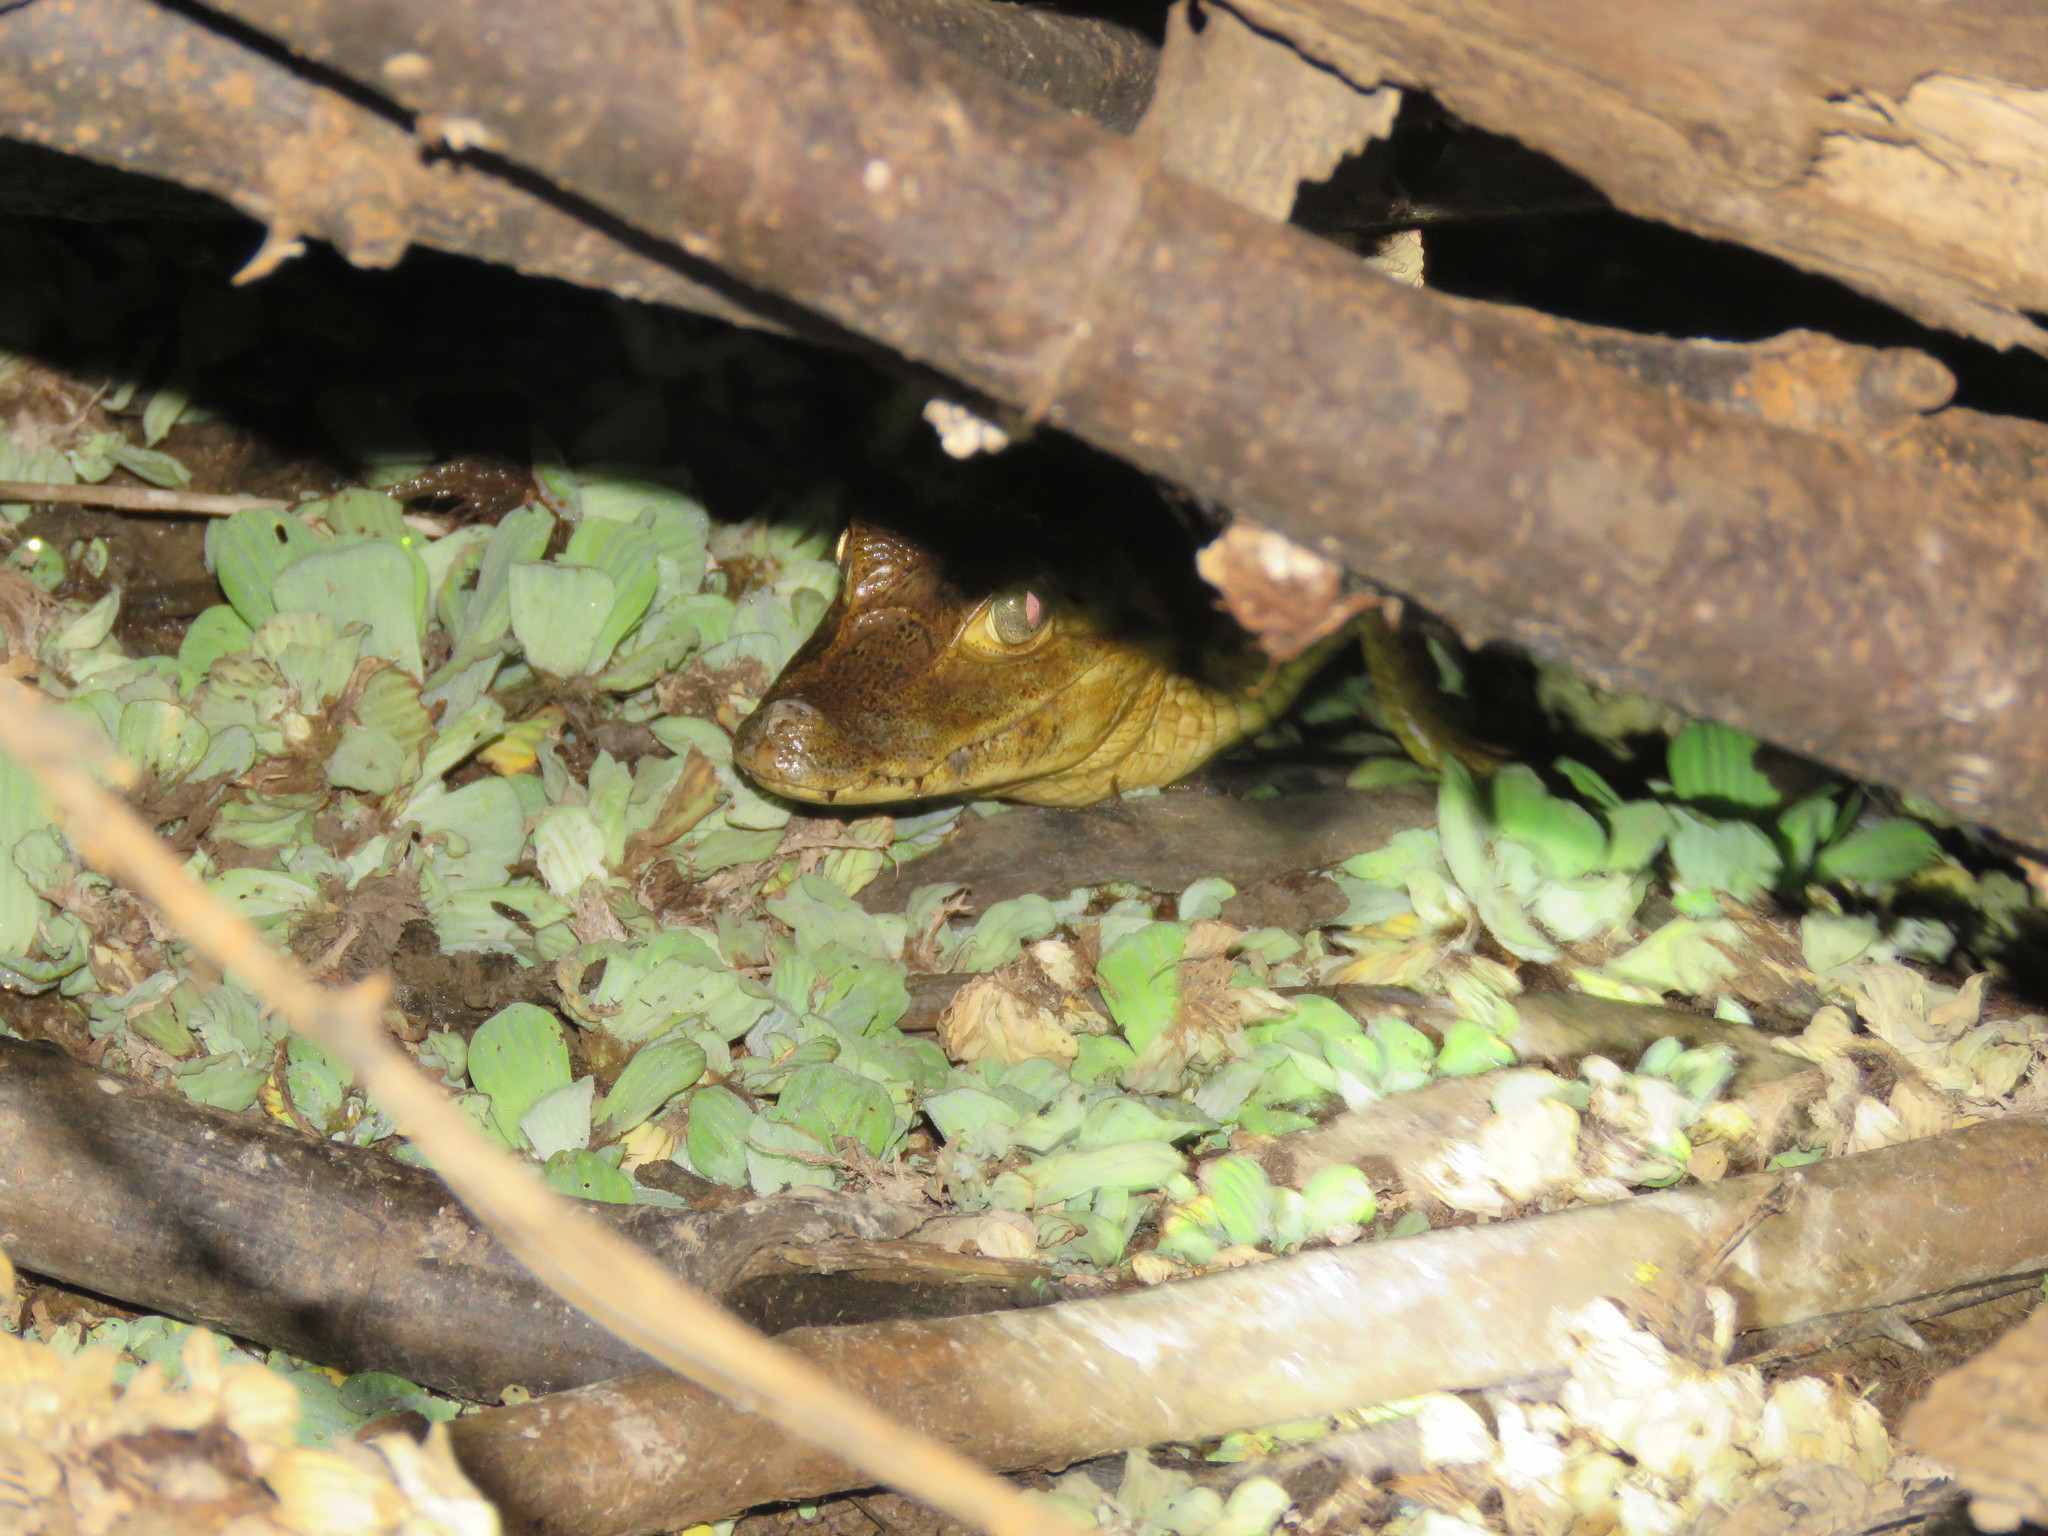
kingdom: Animalia
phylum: Chordata
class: Crocodylia
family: Alligatoridae
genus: Caiman
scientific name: Caiman yacare
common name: Yacare caiman
